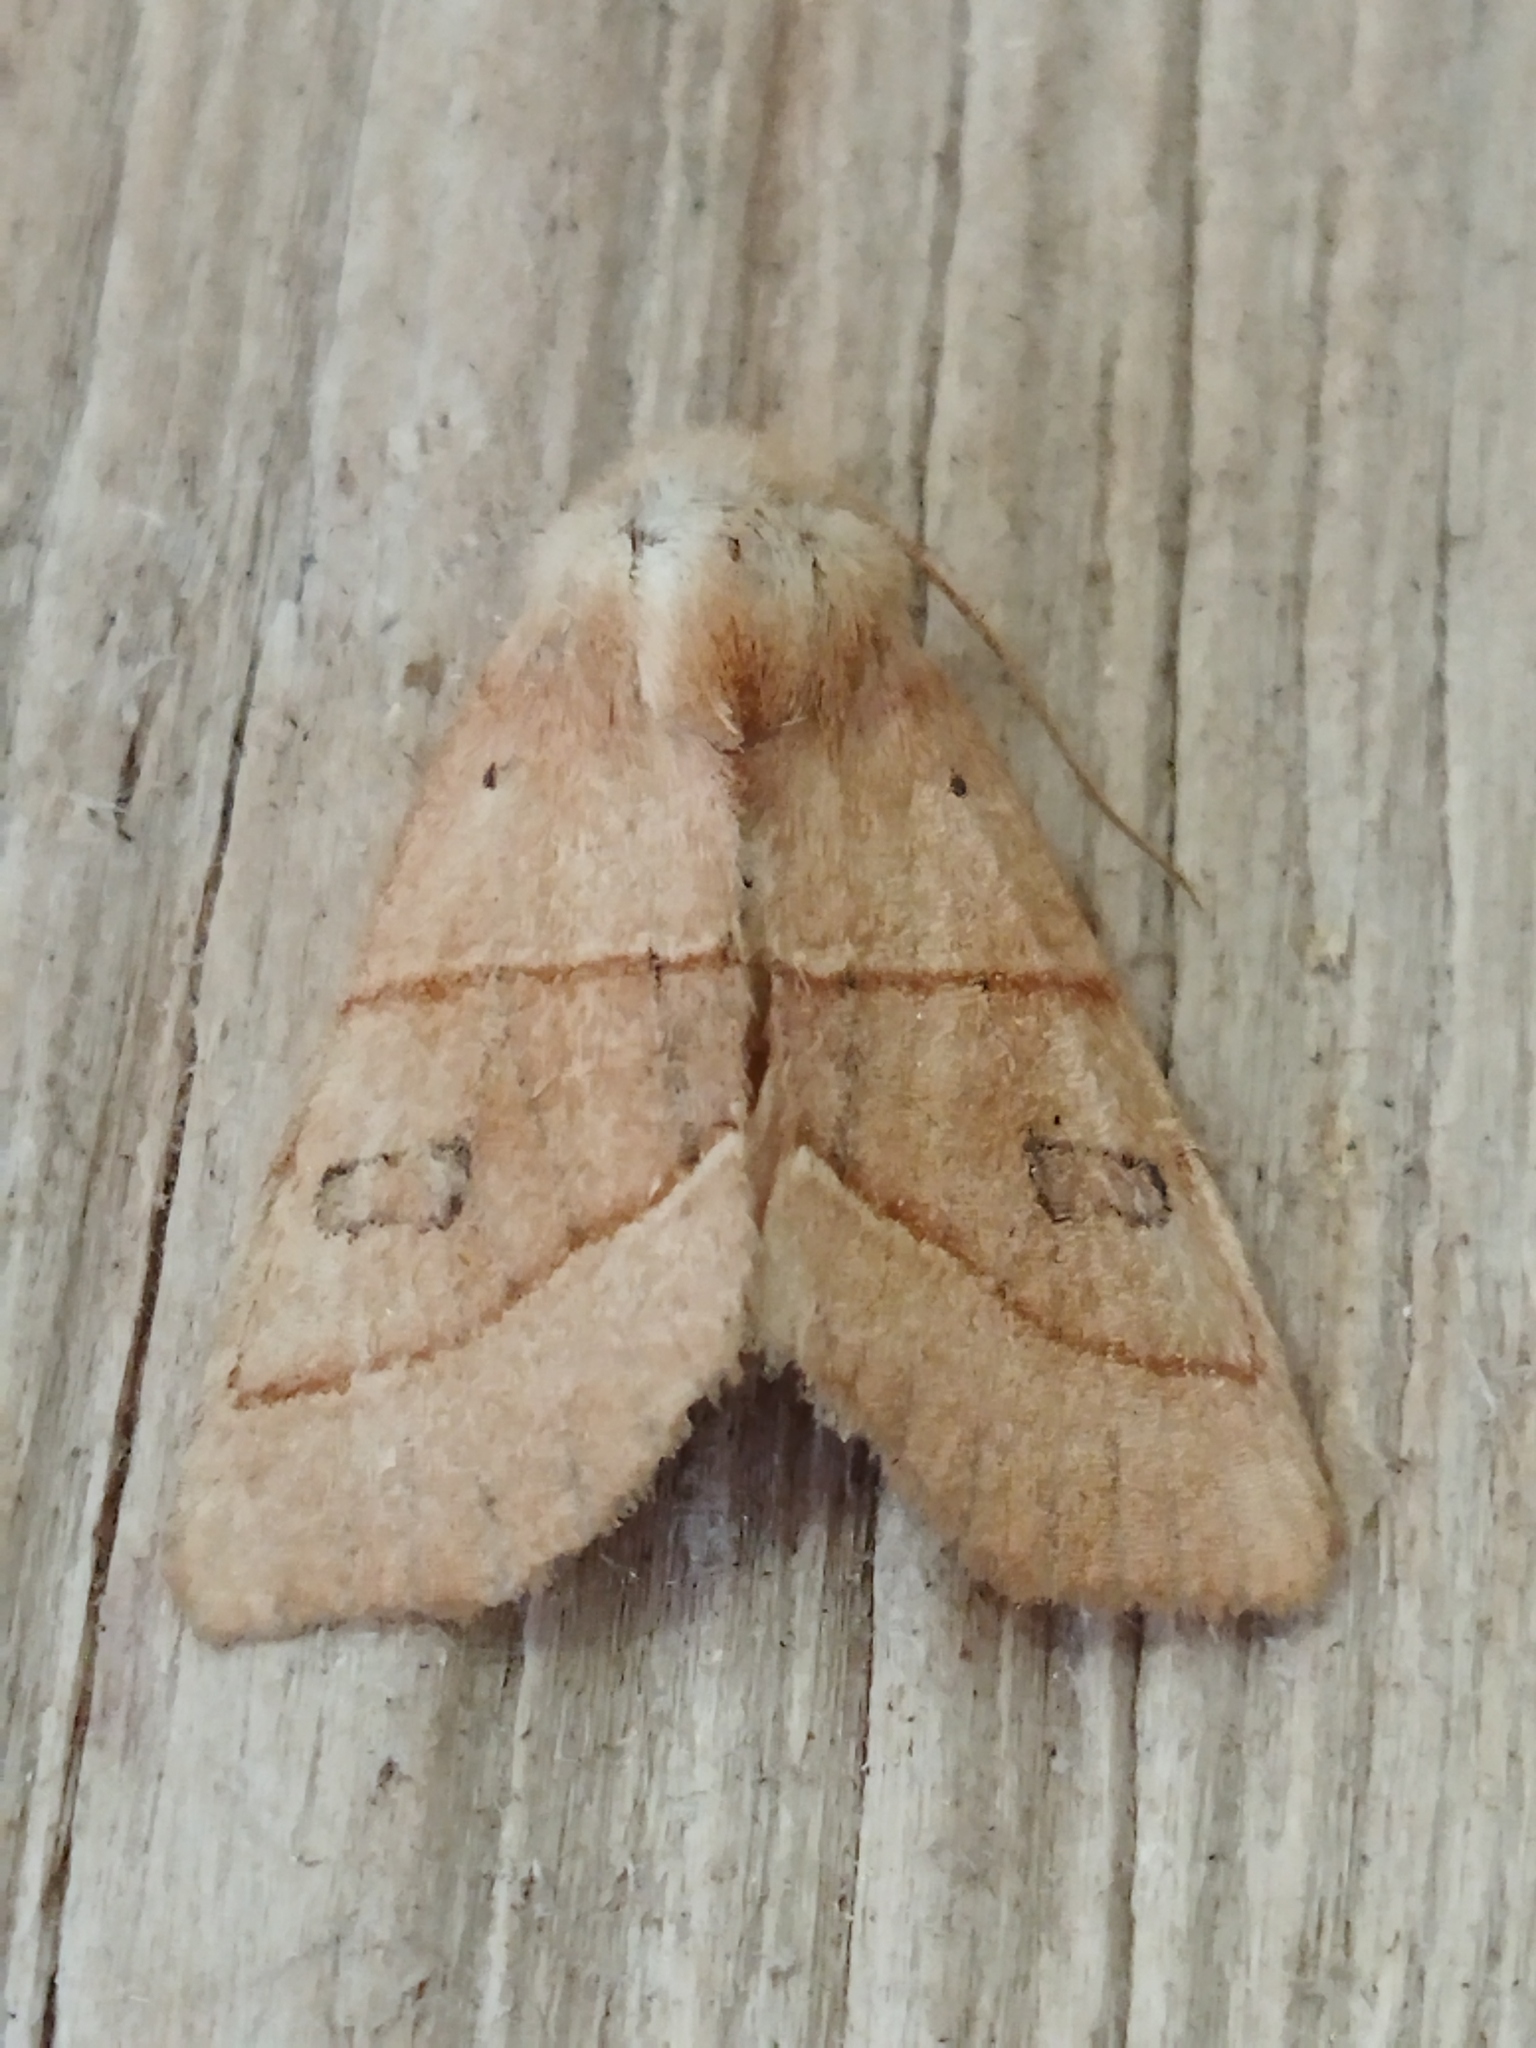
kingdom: Animalia
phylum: Arthropoda
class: Insecta
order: Lepidoptera
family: Noctuidae
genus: Atethmia
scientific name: Atethmia centrago
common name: Centre-barred sallow
